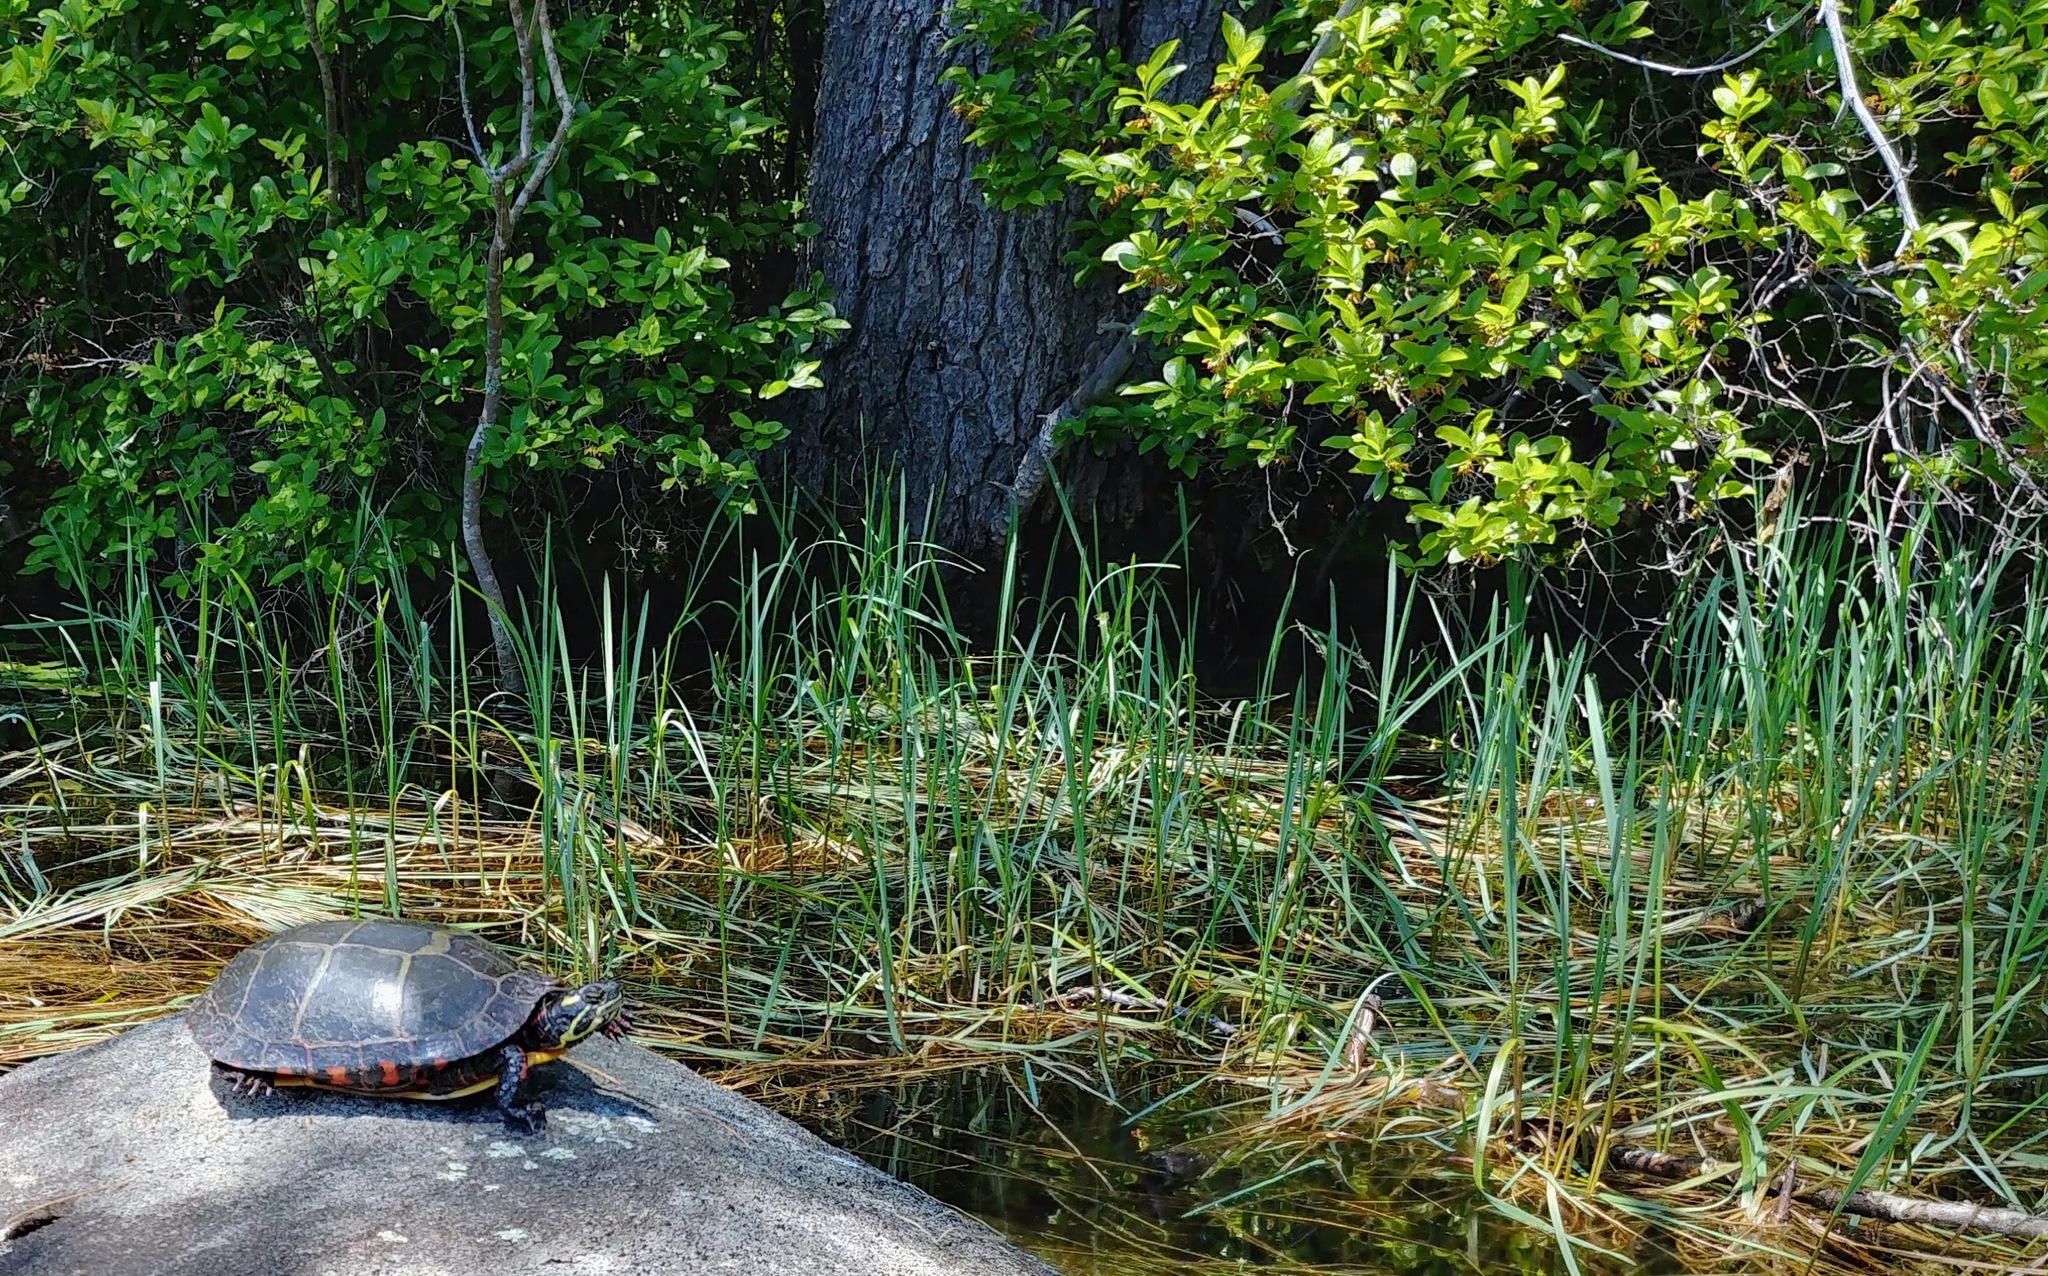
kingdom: Animalia
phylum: Chordata
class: Testudines
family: Emydidae
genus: Chrysemys
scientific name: Chrysemys picta
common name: Painted turtle
